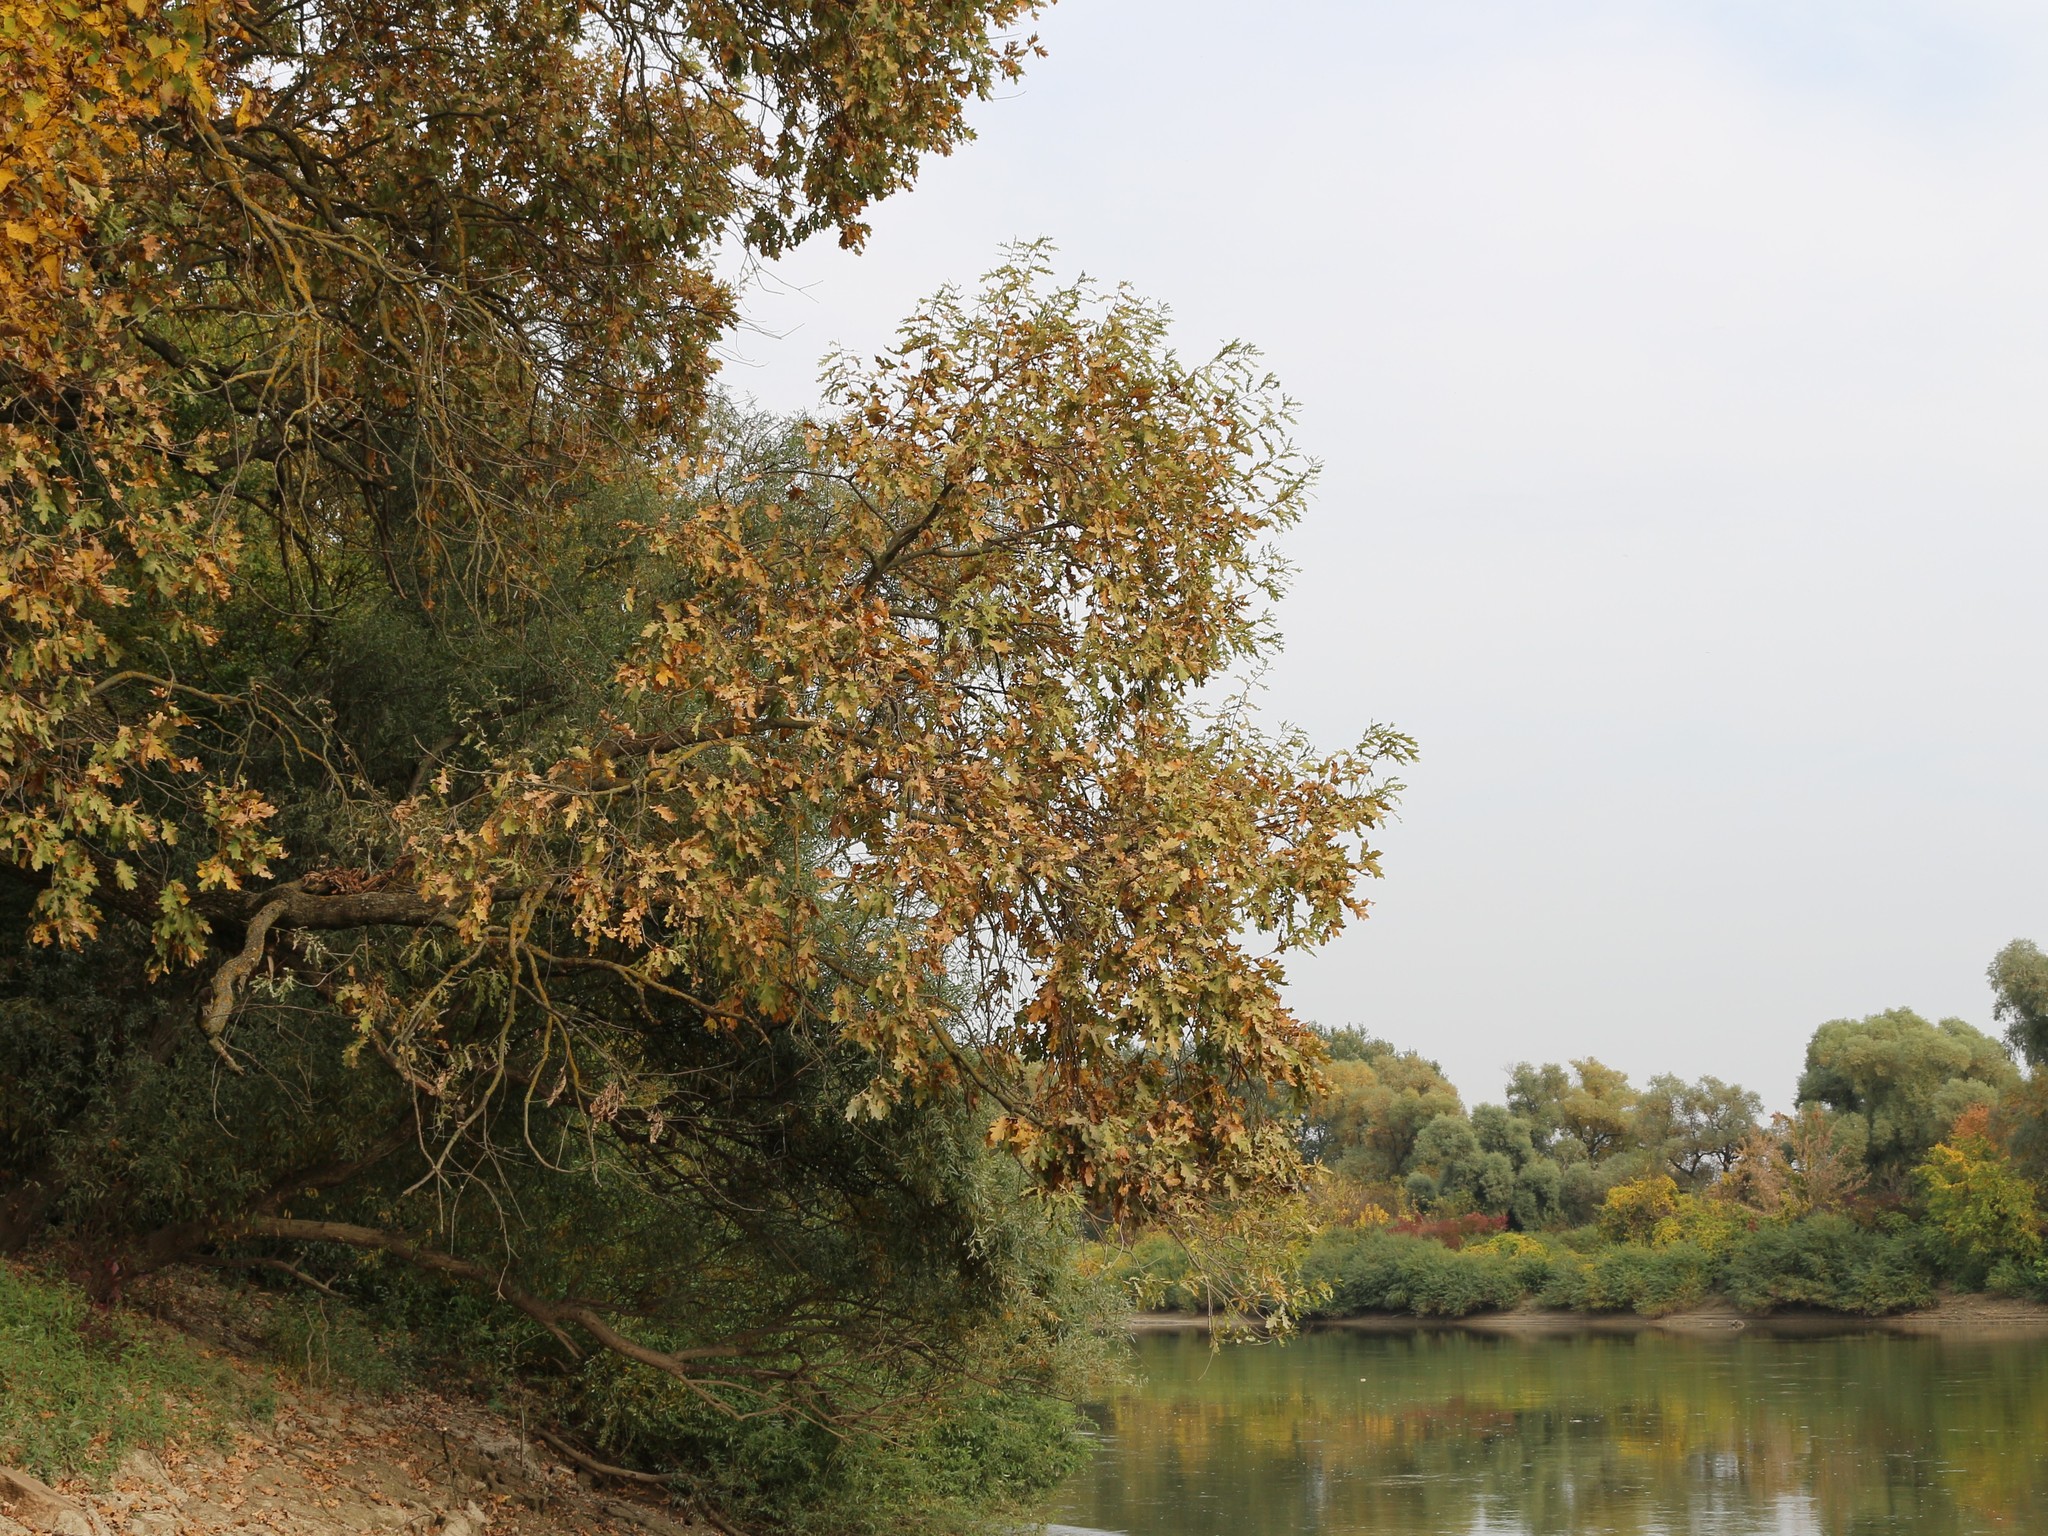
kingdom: Plantae
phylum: Tracheophyta
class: Magnoliopsida
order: Fagales
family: Fagaceae
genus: Quercus
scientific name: Quercus robur
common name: Pedunculate oak
